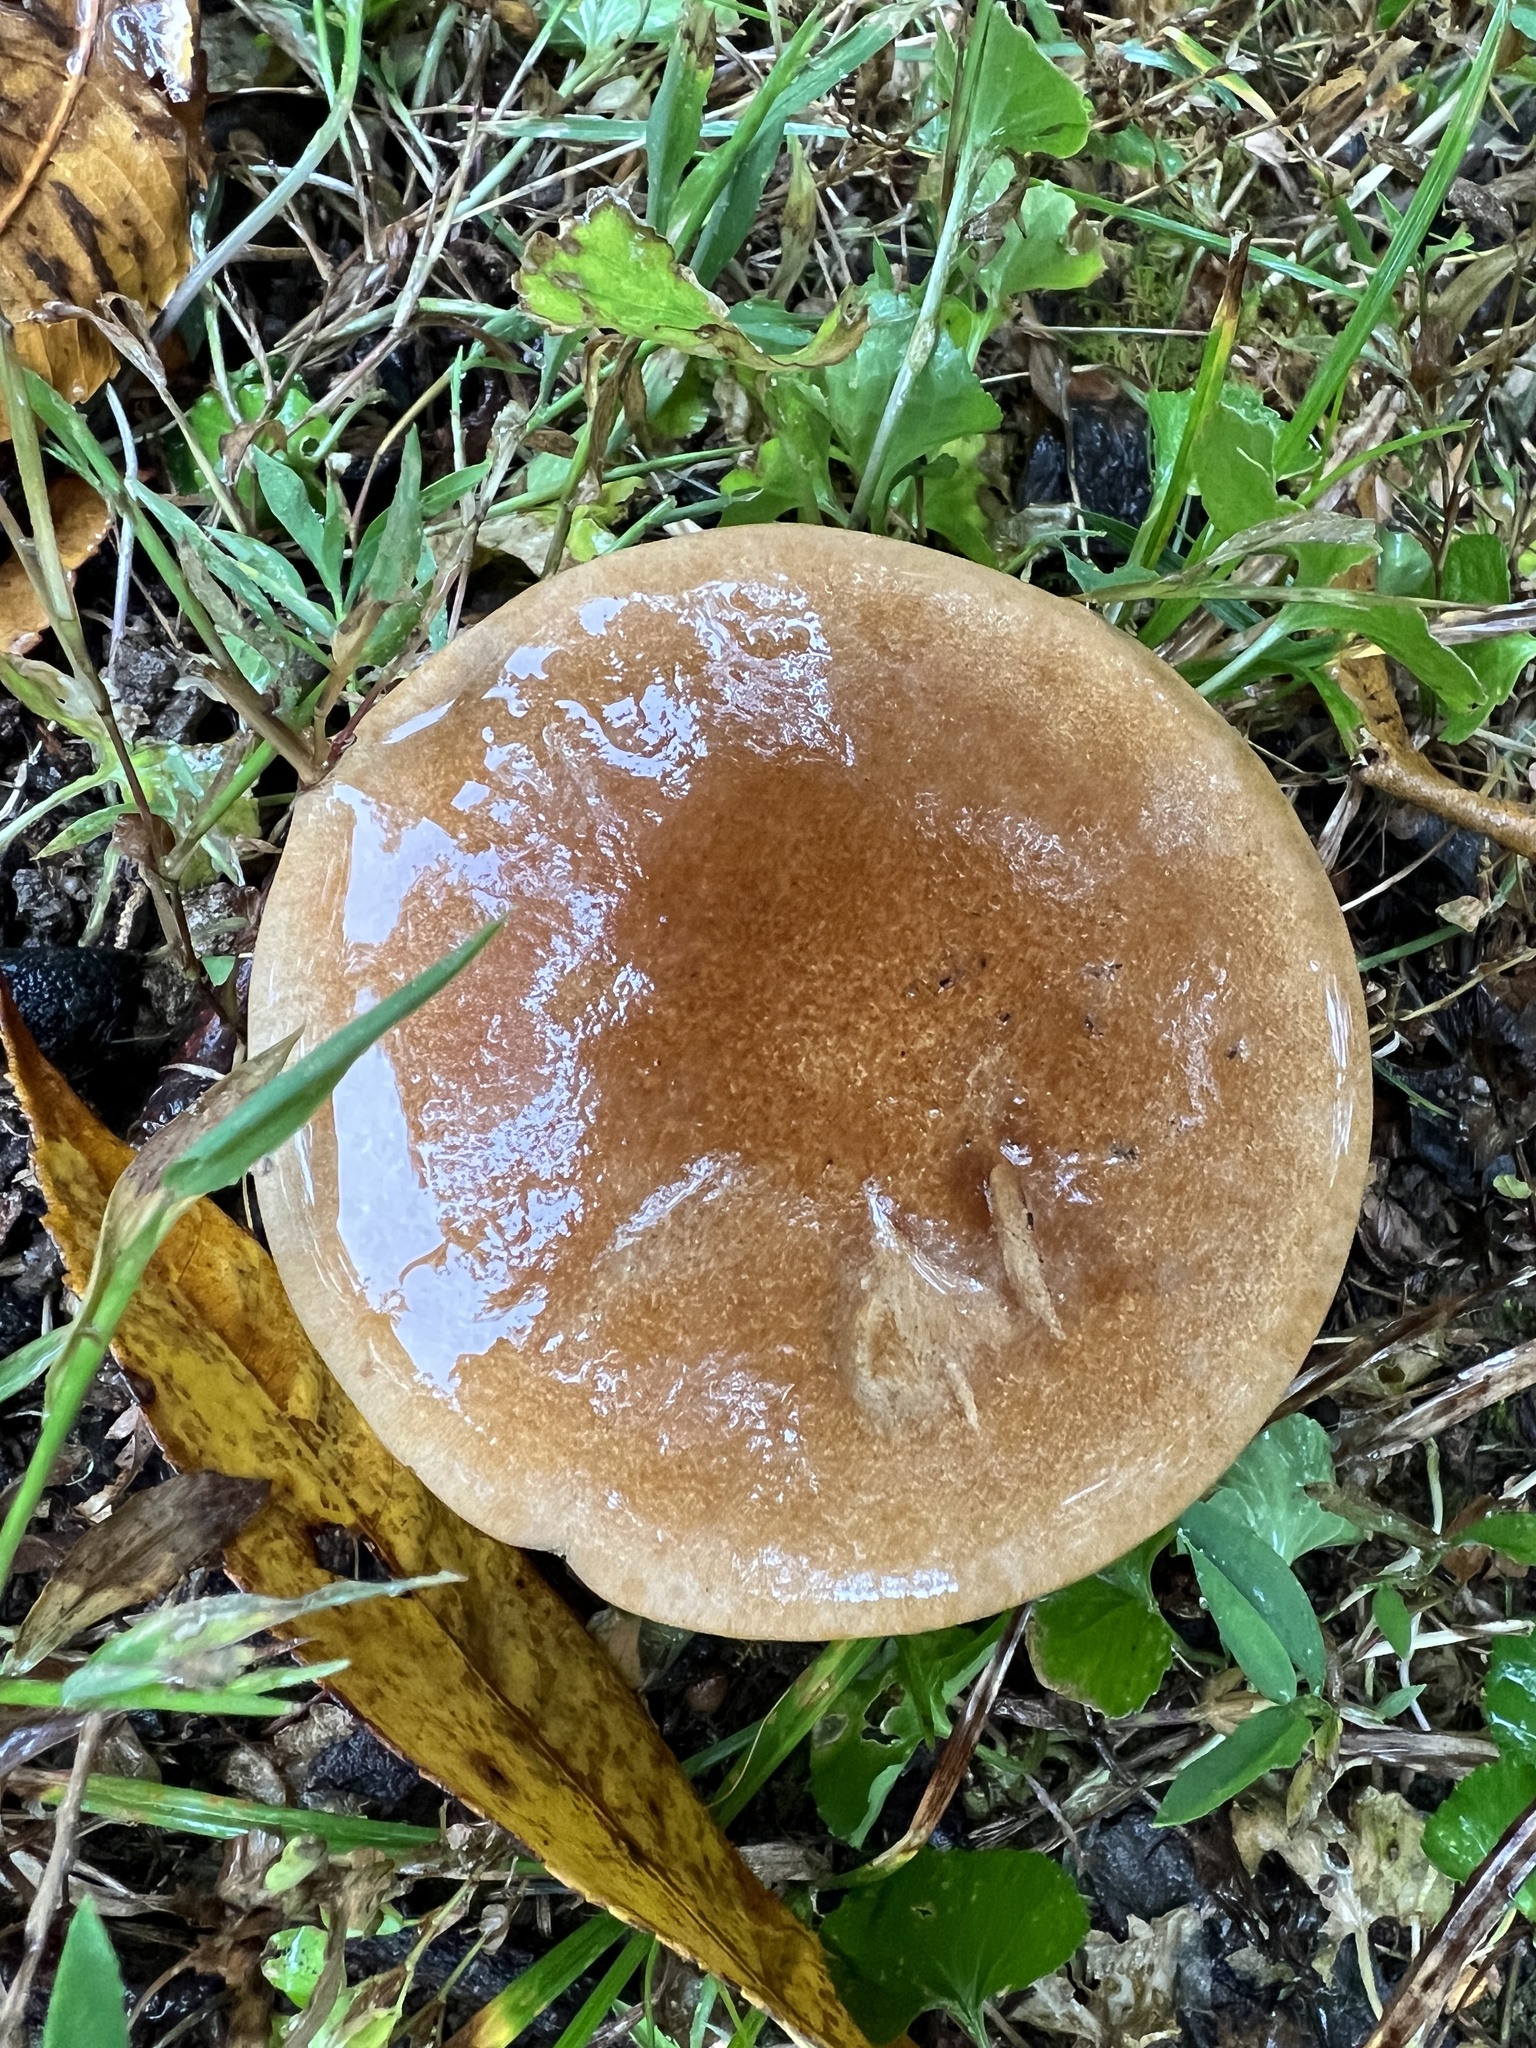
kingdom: Fungi
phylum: Basidiomycota
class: Agaricomycetes
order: Polyporales
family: Polyporaceae
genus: Polyporus
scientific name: Polyporus radicatus
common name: Rooting polypore
